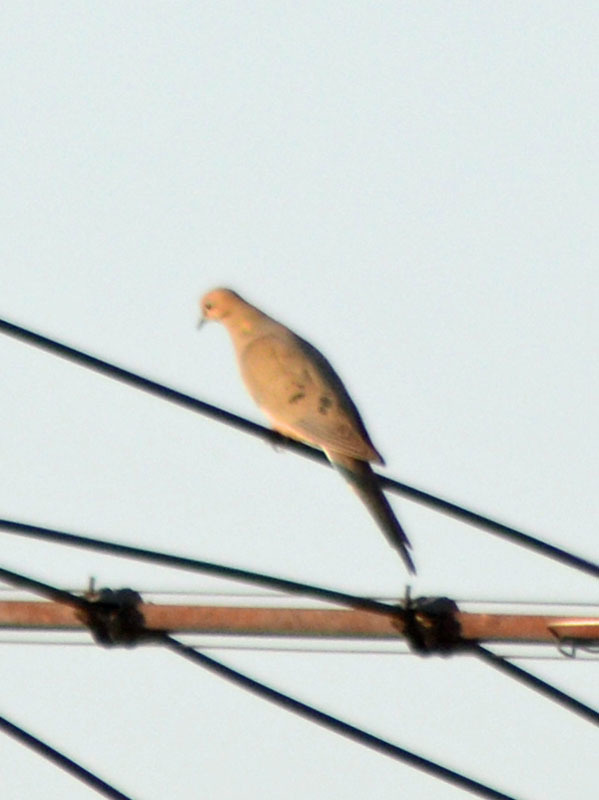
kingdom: Animalia
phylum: Chordata
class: Aves
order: Columbiformes
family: Columbidae
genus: Zenaida
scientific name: Zenaida macroura
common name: Mourning dove
